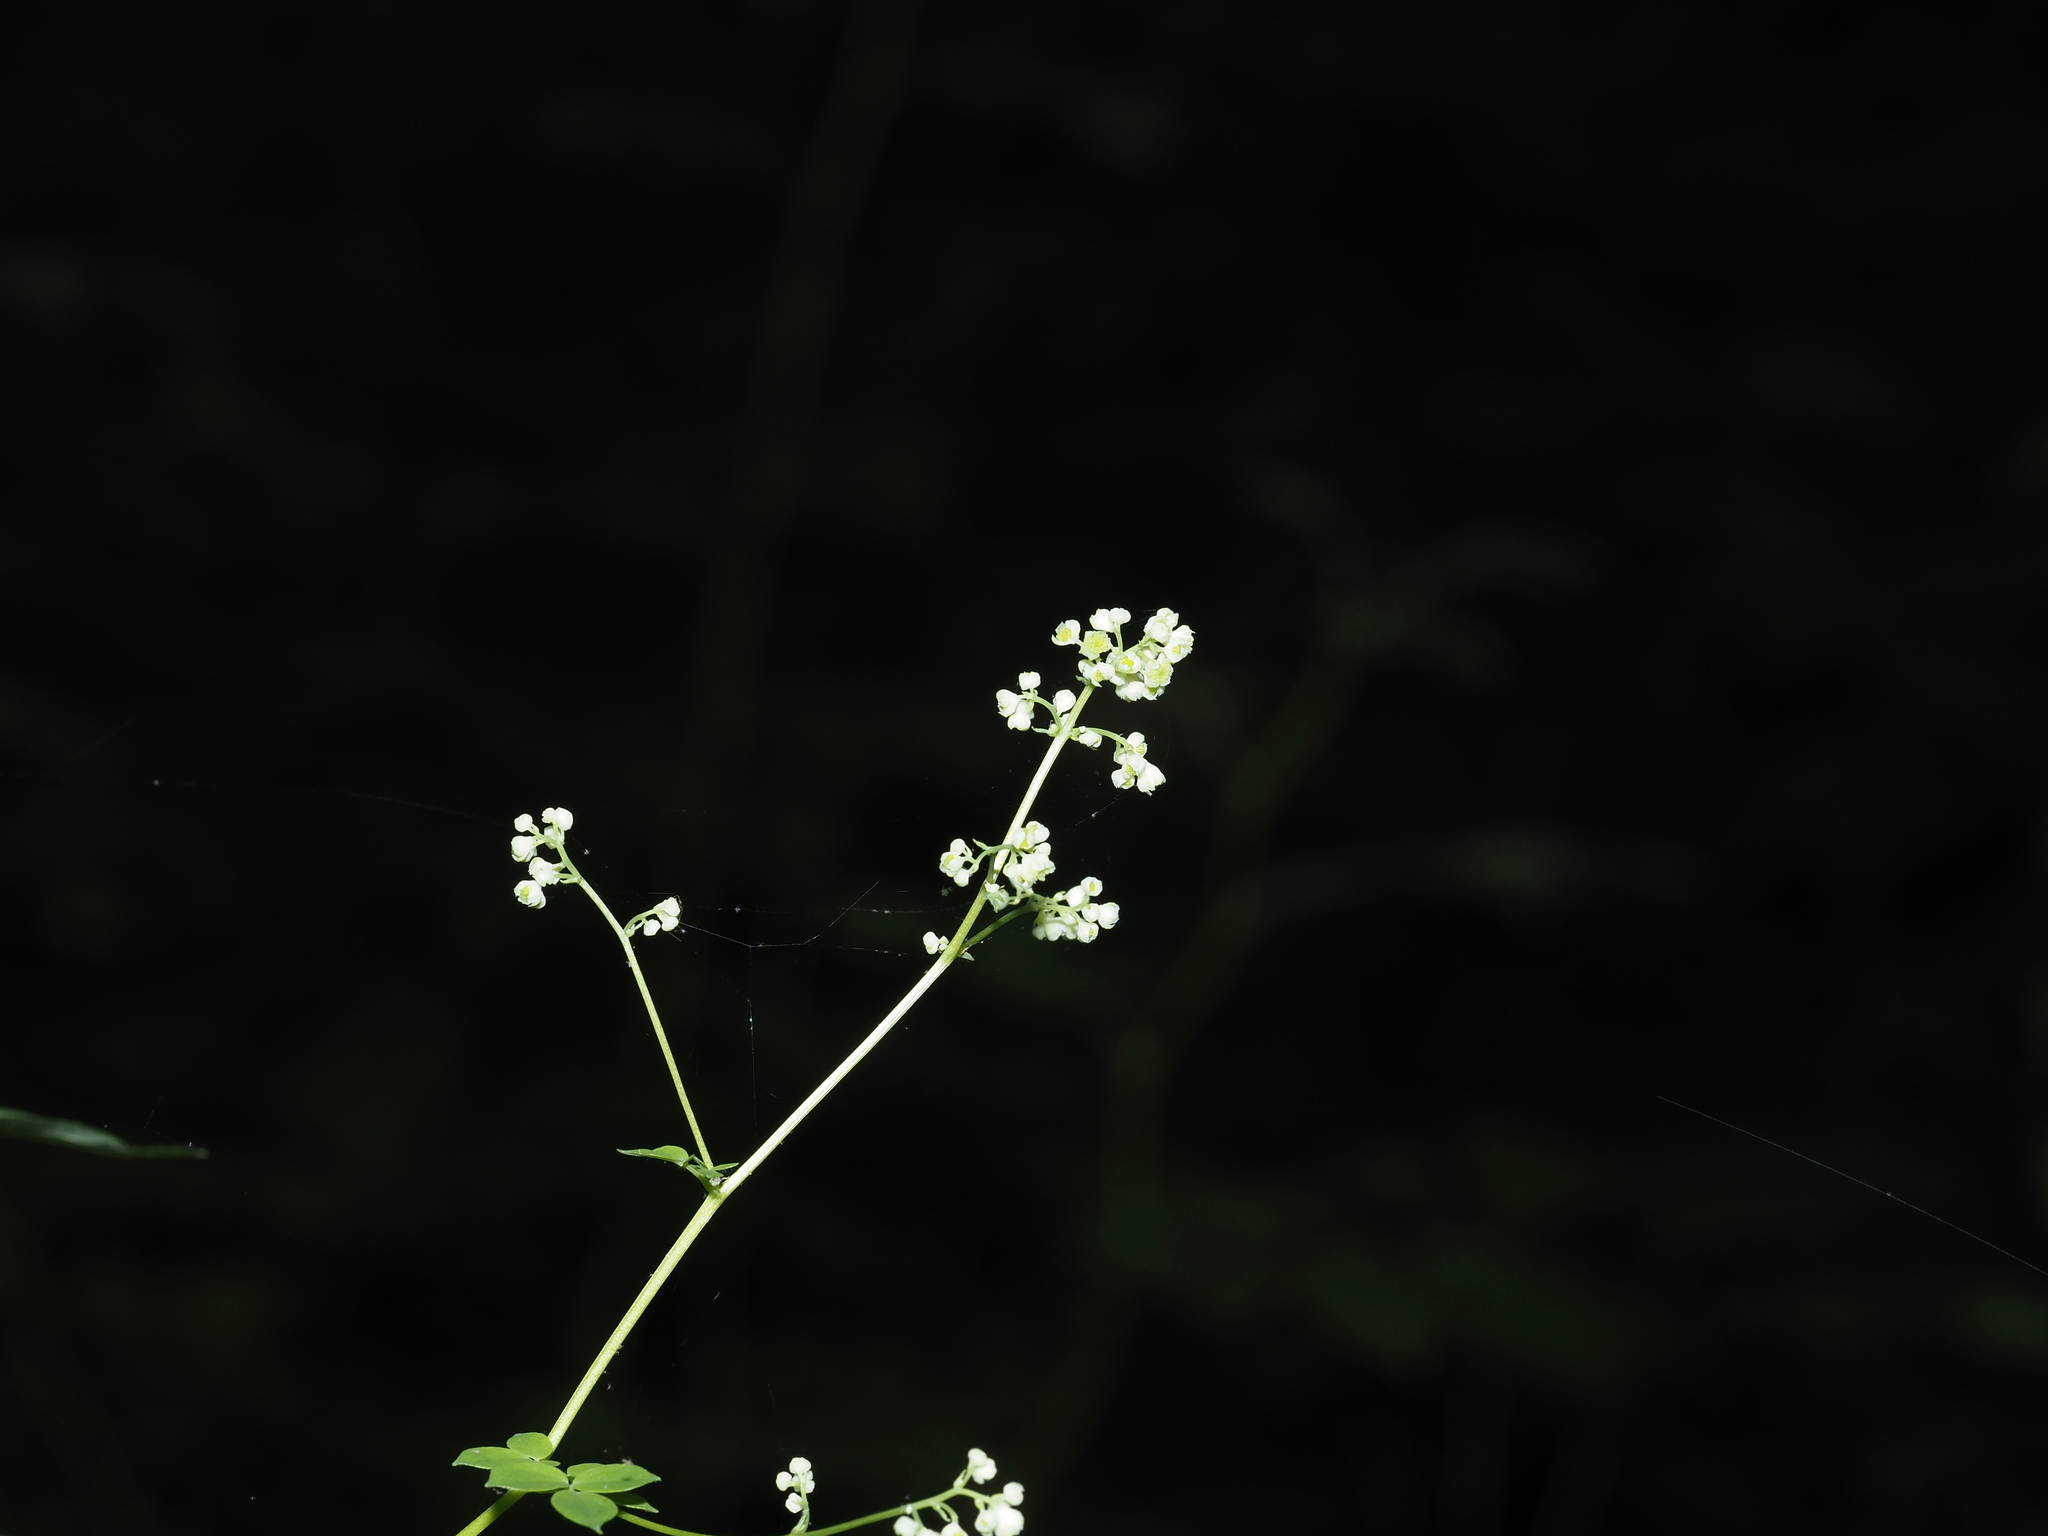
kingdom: Plantae
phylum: Tracheophyta
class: Magnoliopsida
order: Ranunculales
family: Ranunculaceae
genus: Thalictrum
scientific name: Thalictrum pubescens
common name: King-of-the-meadow
